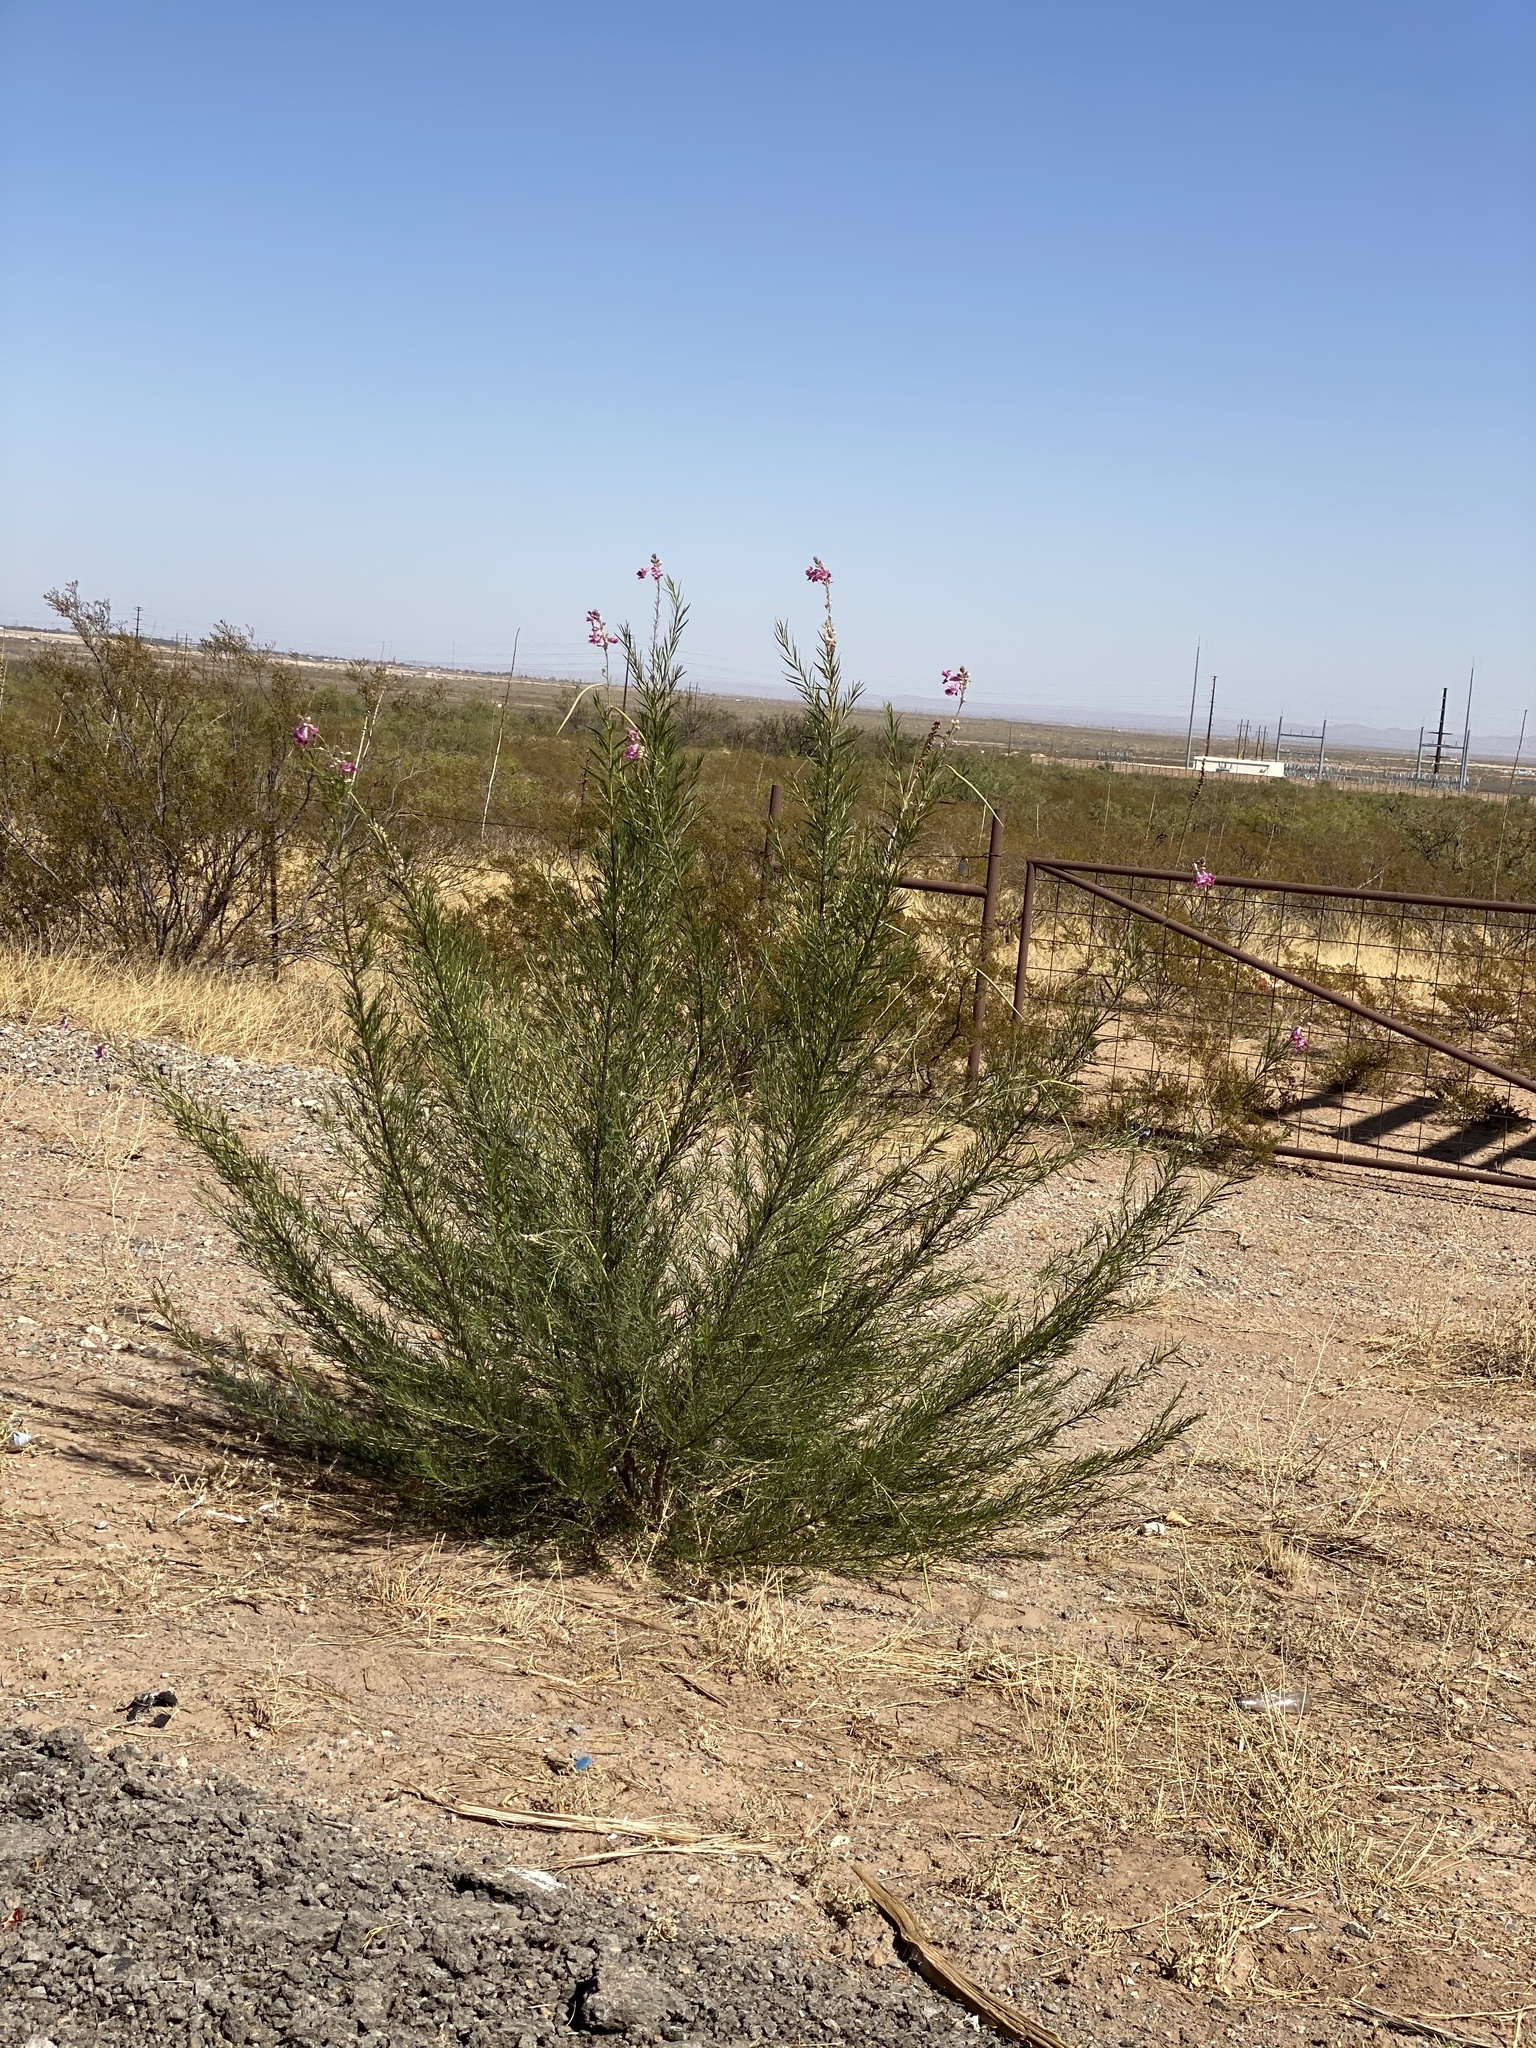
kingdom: Plantae
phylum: Tracheophyta
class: Magnoliopsida
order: Lamiales
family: Bignoniaceae
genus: Chilopsis
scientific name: Chilopsis linearis
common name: Desert-willow
